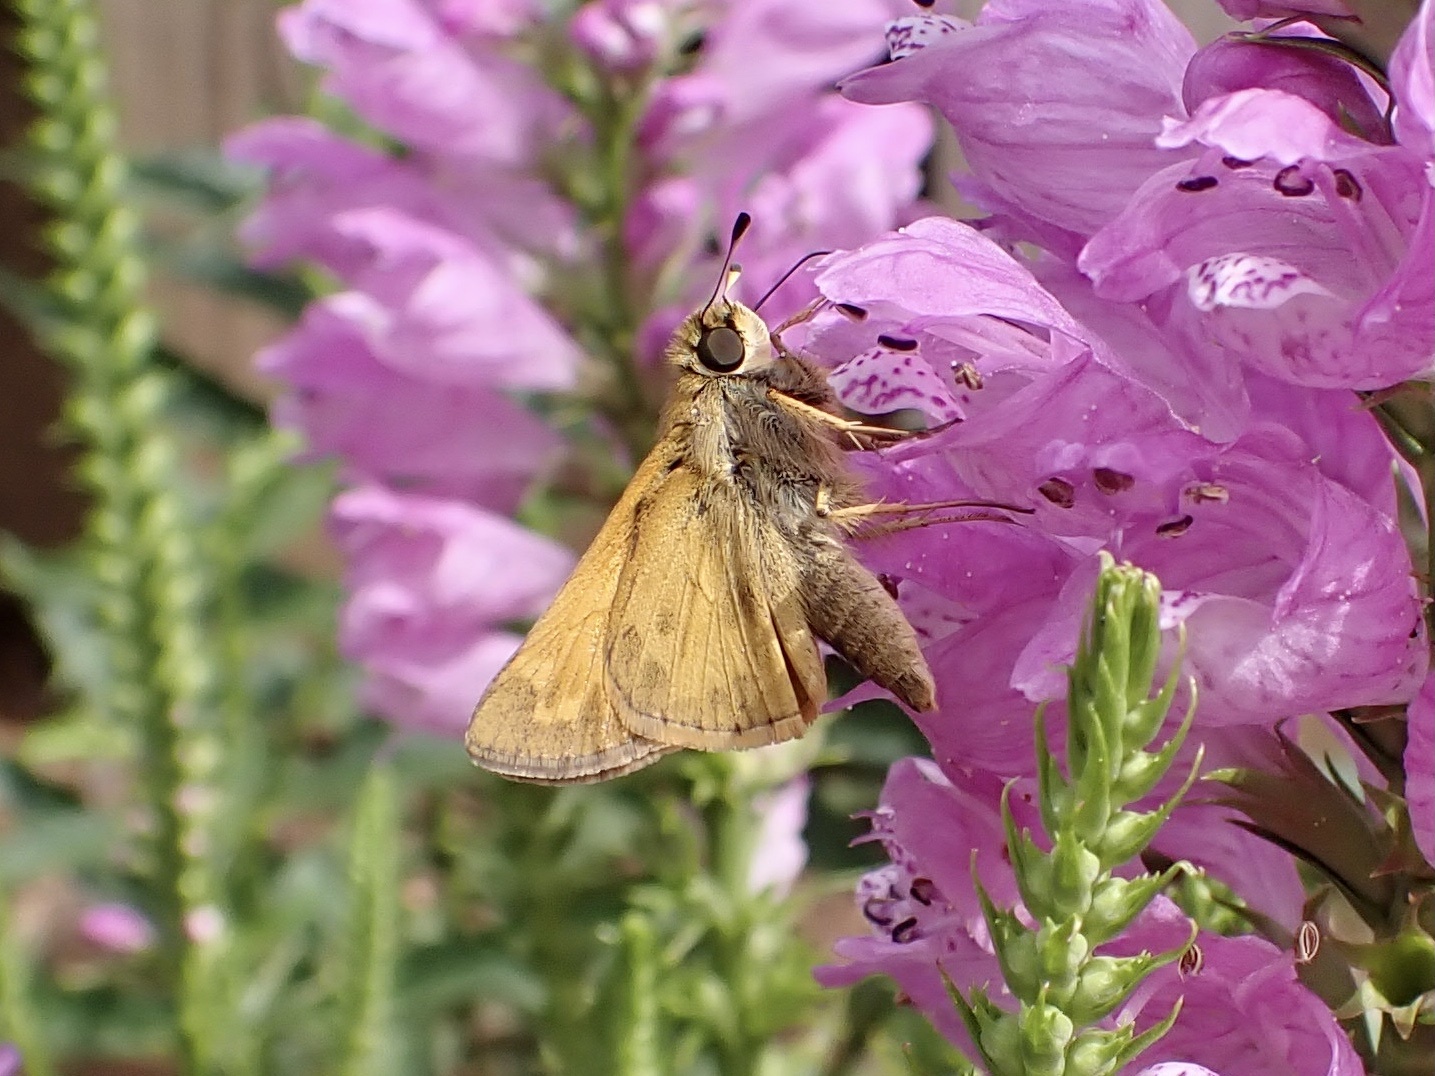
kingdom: Animalia
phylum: Arthropoda
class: Insecta
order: Lepidoptera
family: Hesperiidae
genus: Atalopedes
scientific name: Atalopedes
